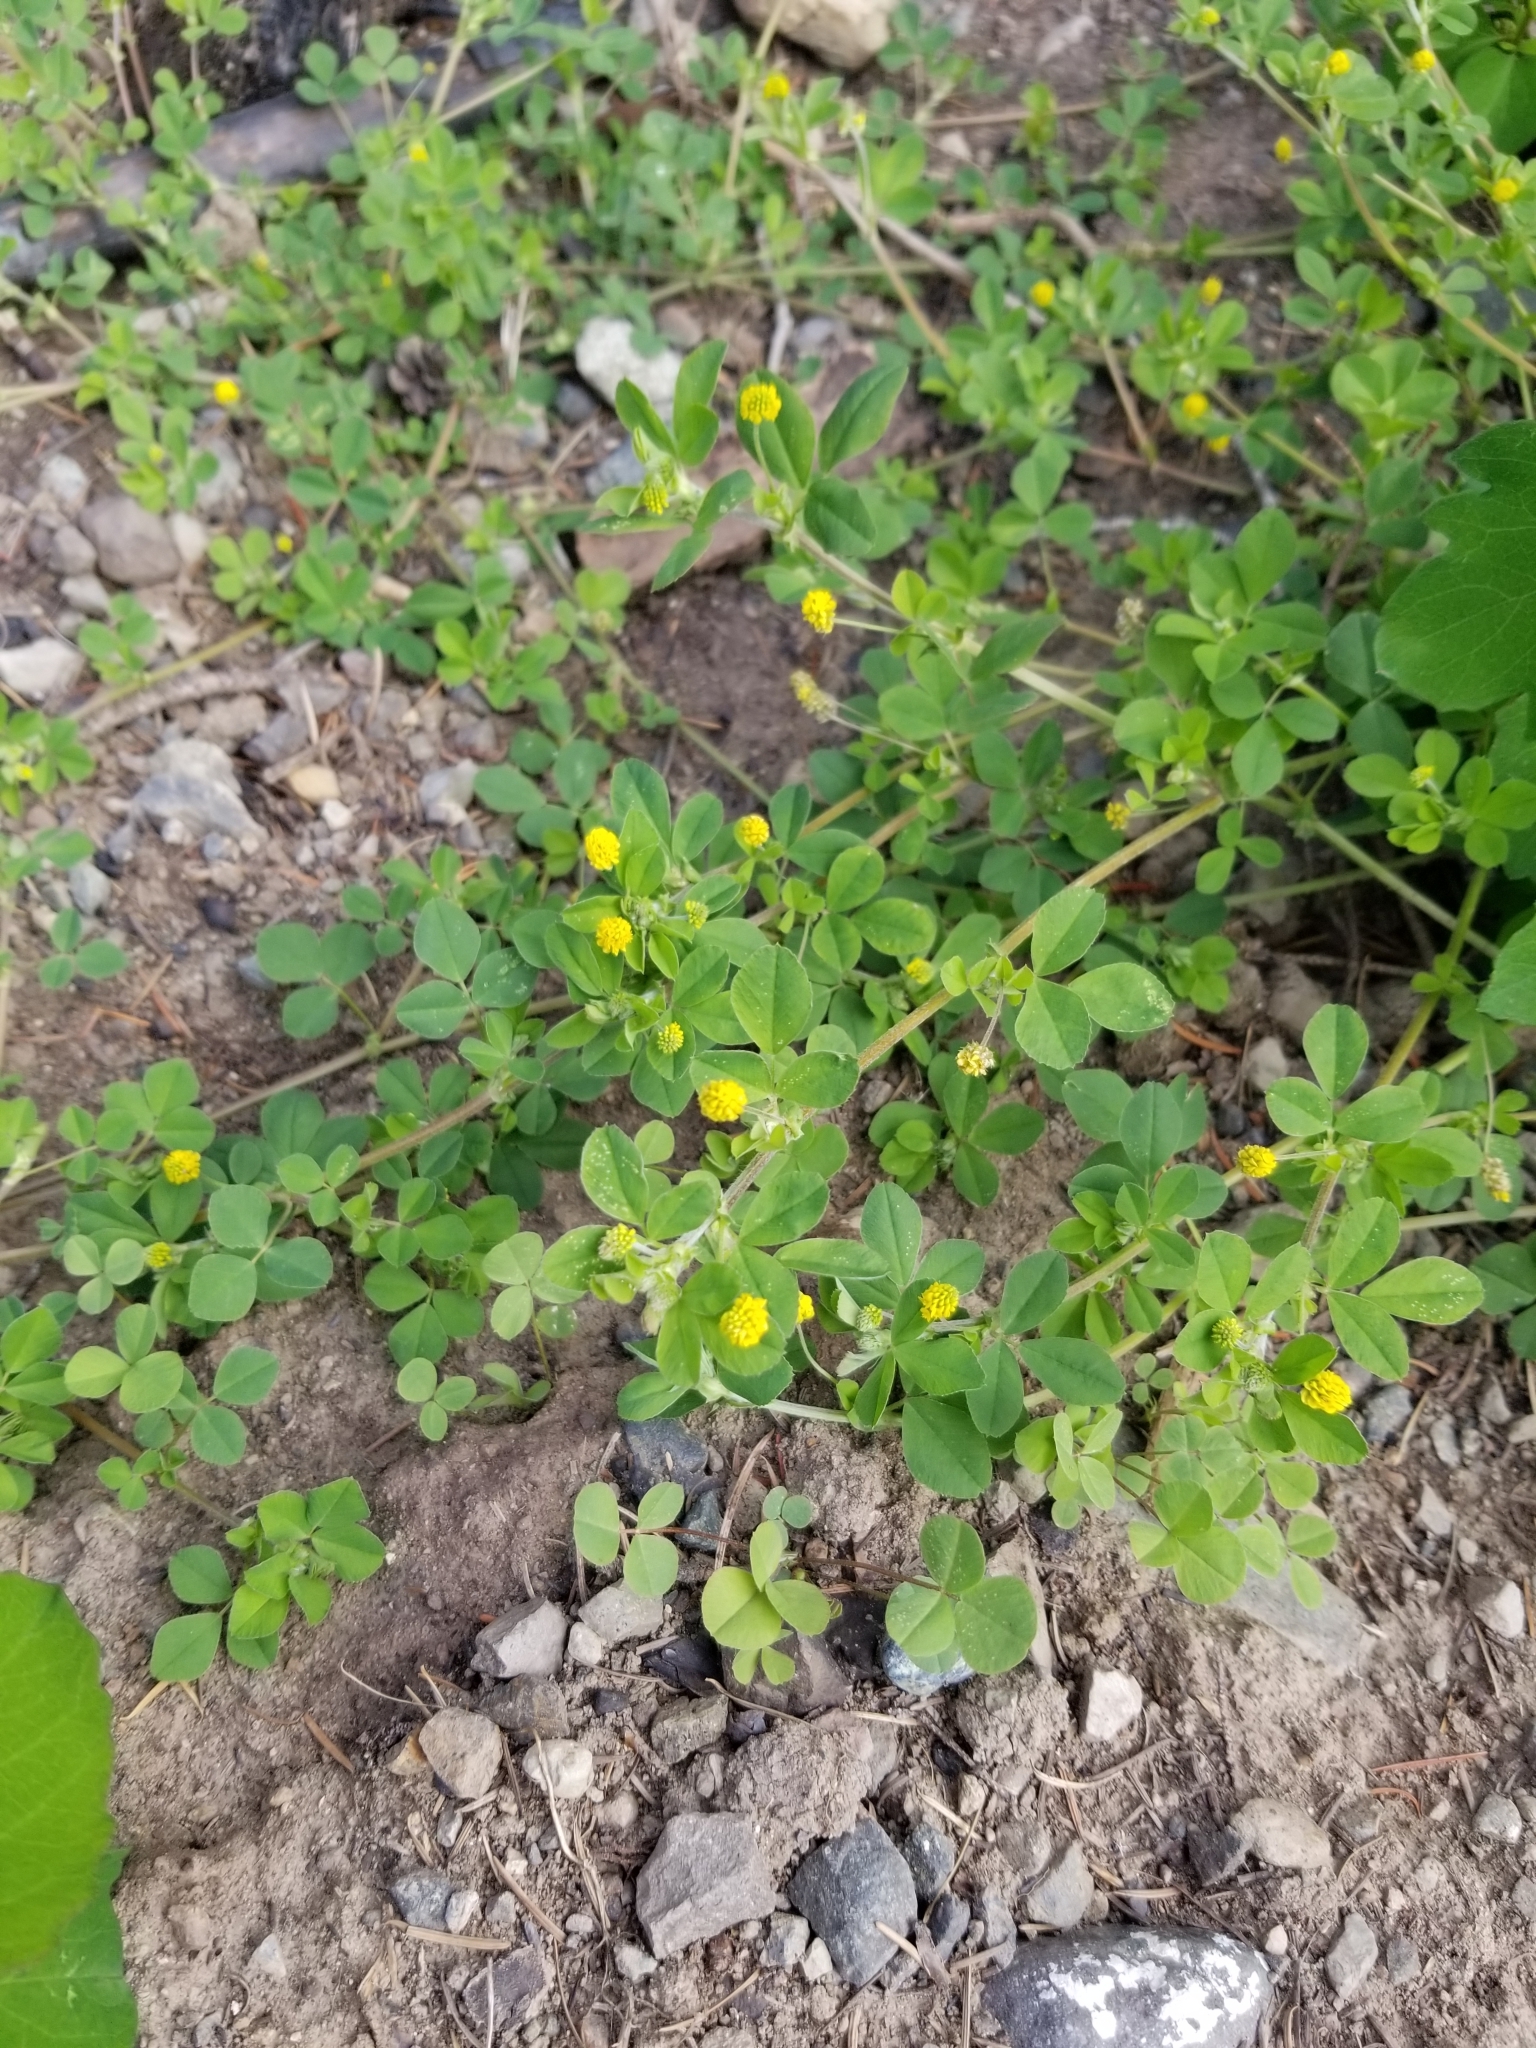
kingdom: Plantae
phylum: Tracheophyta
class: Magnoliopsida
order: Fabales
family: Fabaceae
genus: Medicago
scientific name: Medicago lupulina
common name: Black medick
